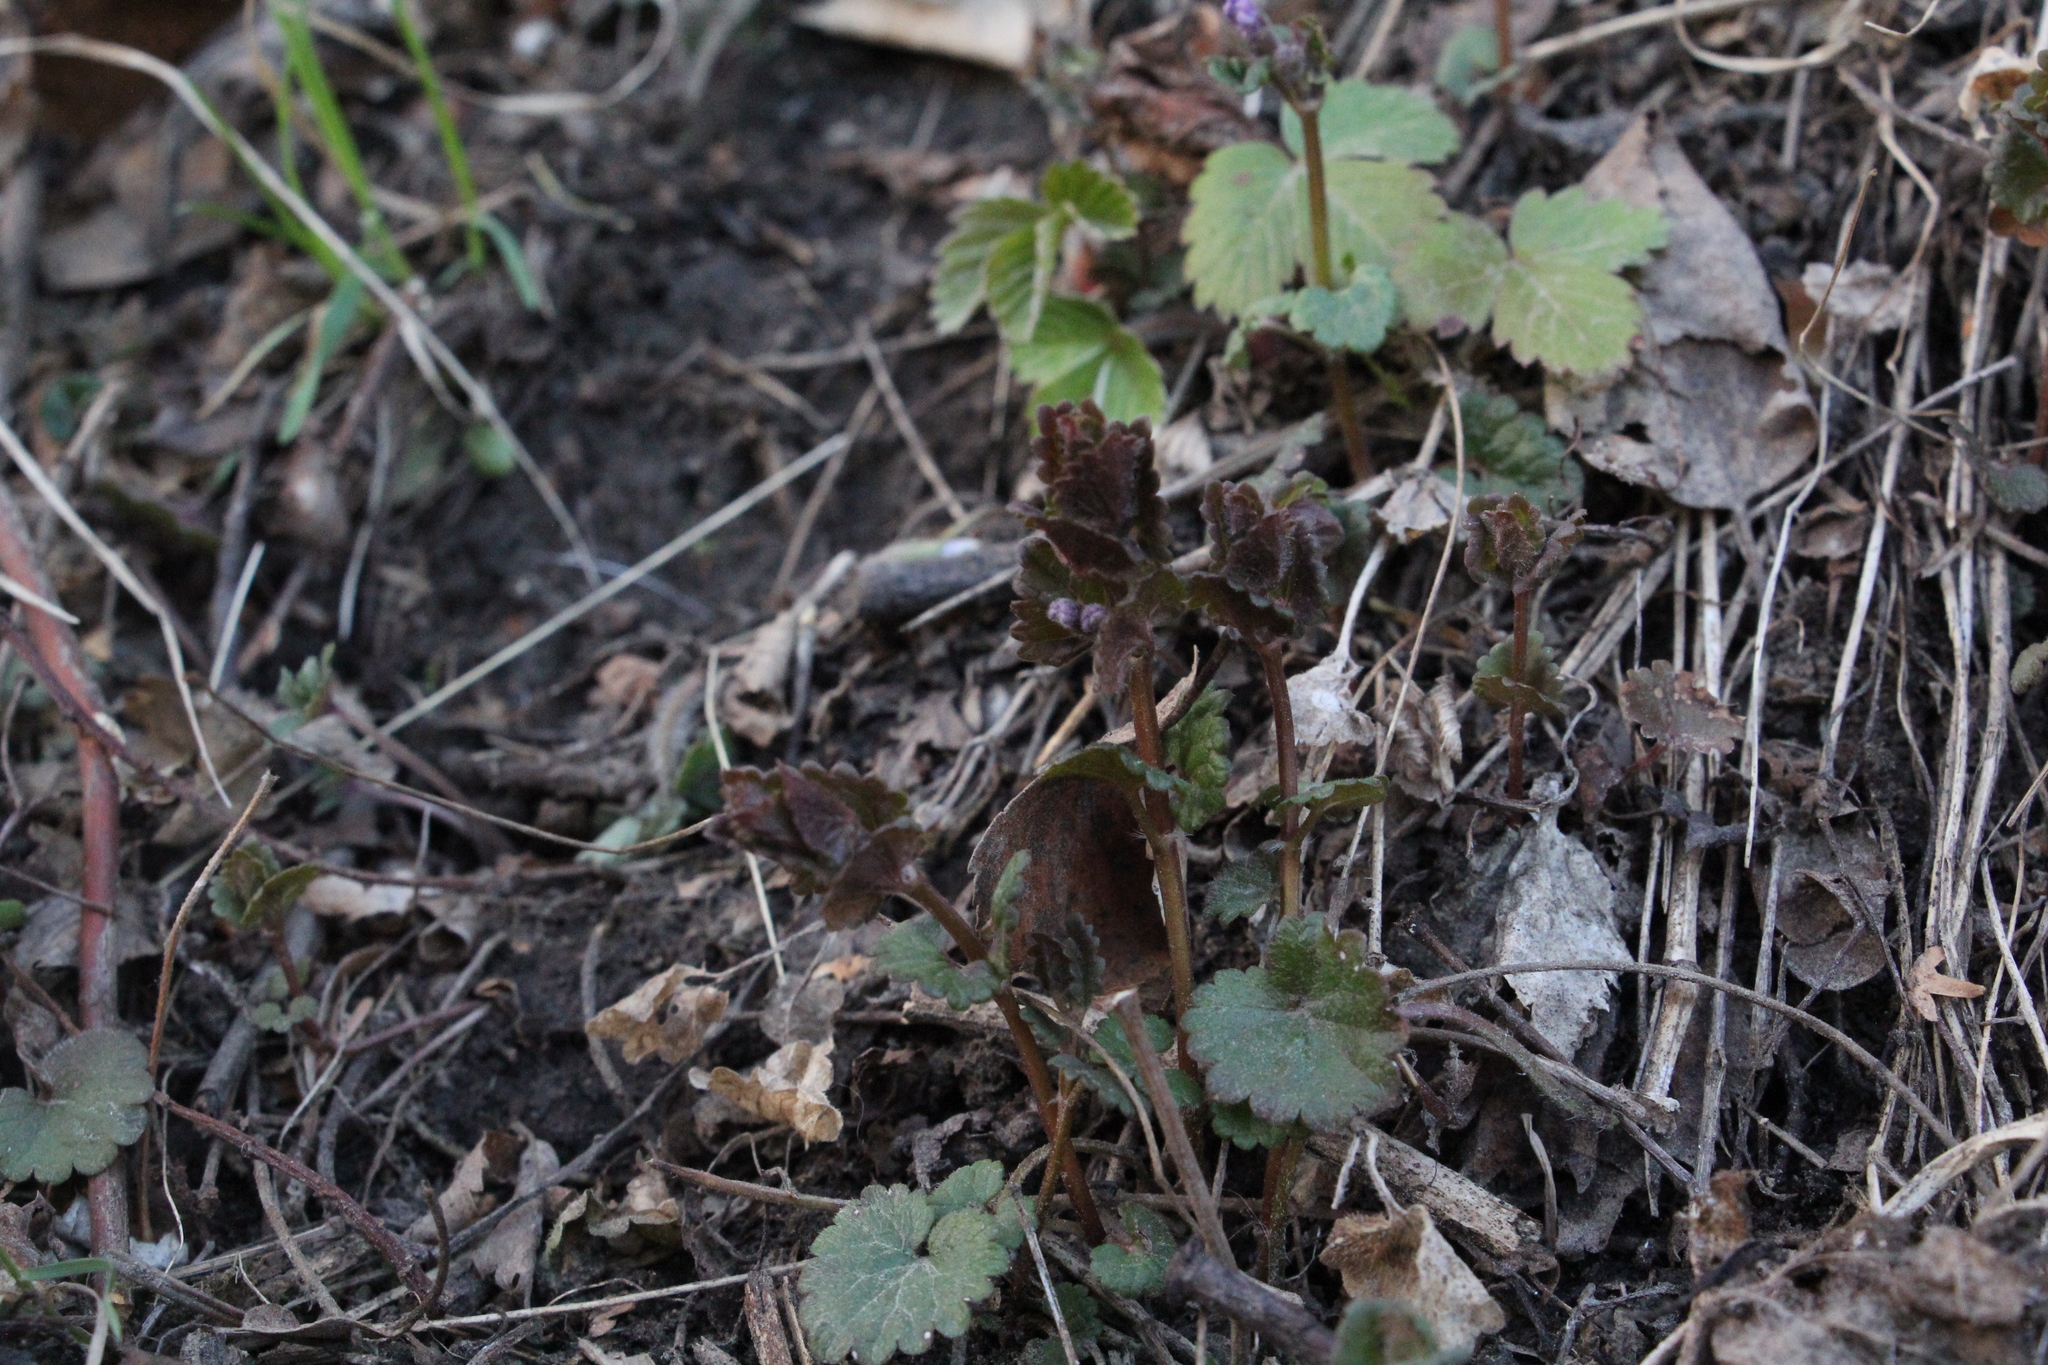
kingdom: Plantae
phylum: Tracheophyta
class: Magnoliopsida
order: Lamiales
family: Lamiaceae
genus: Glechoma
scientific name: Glechoma hederacea
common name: Ground ivy
